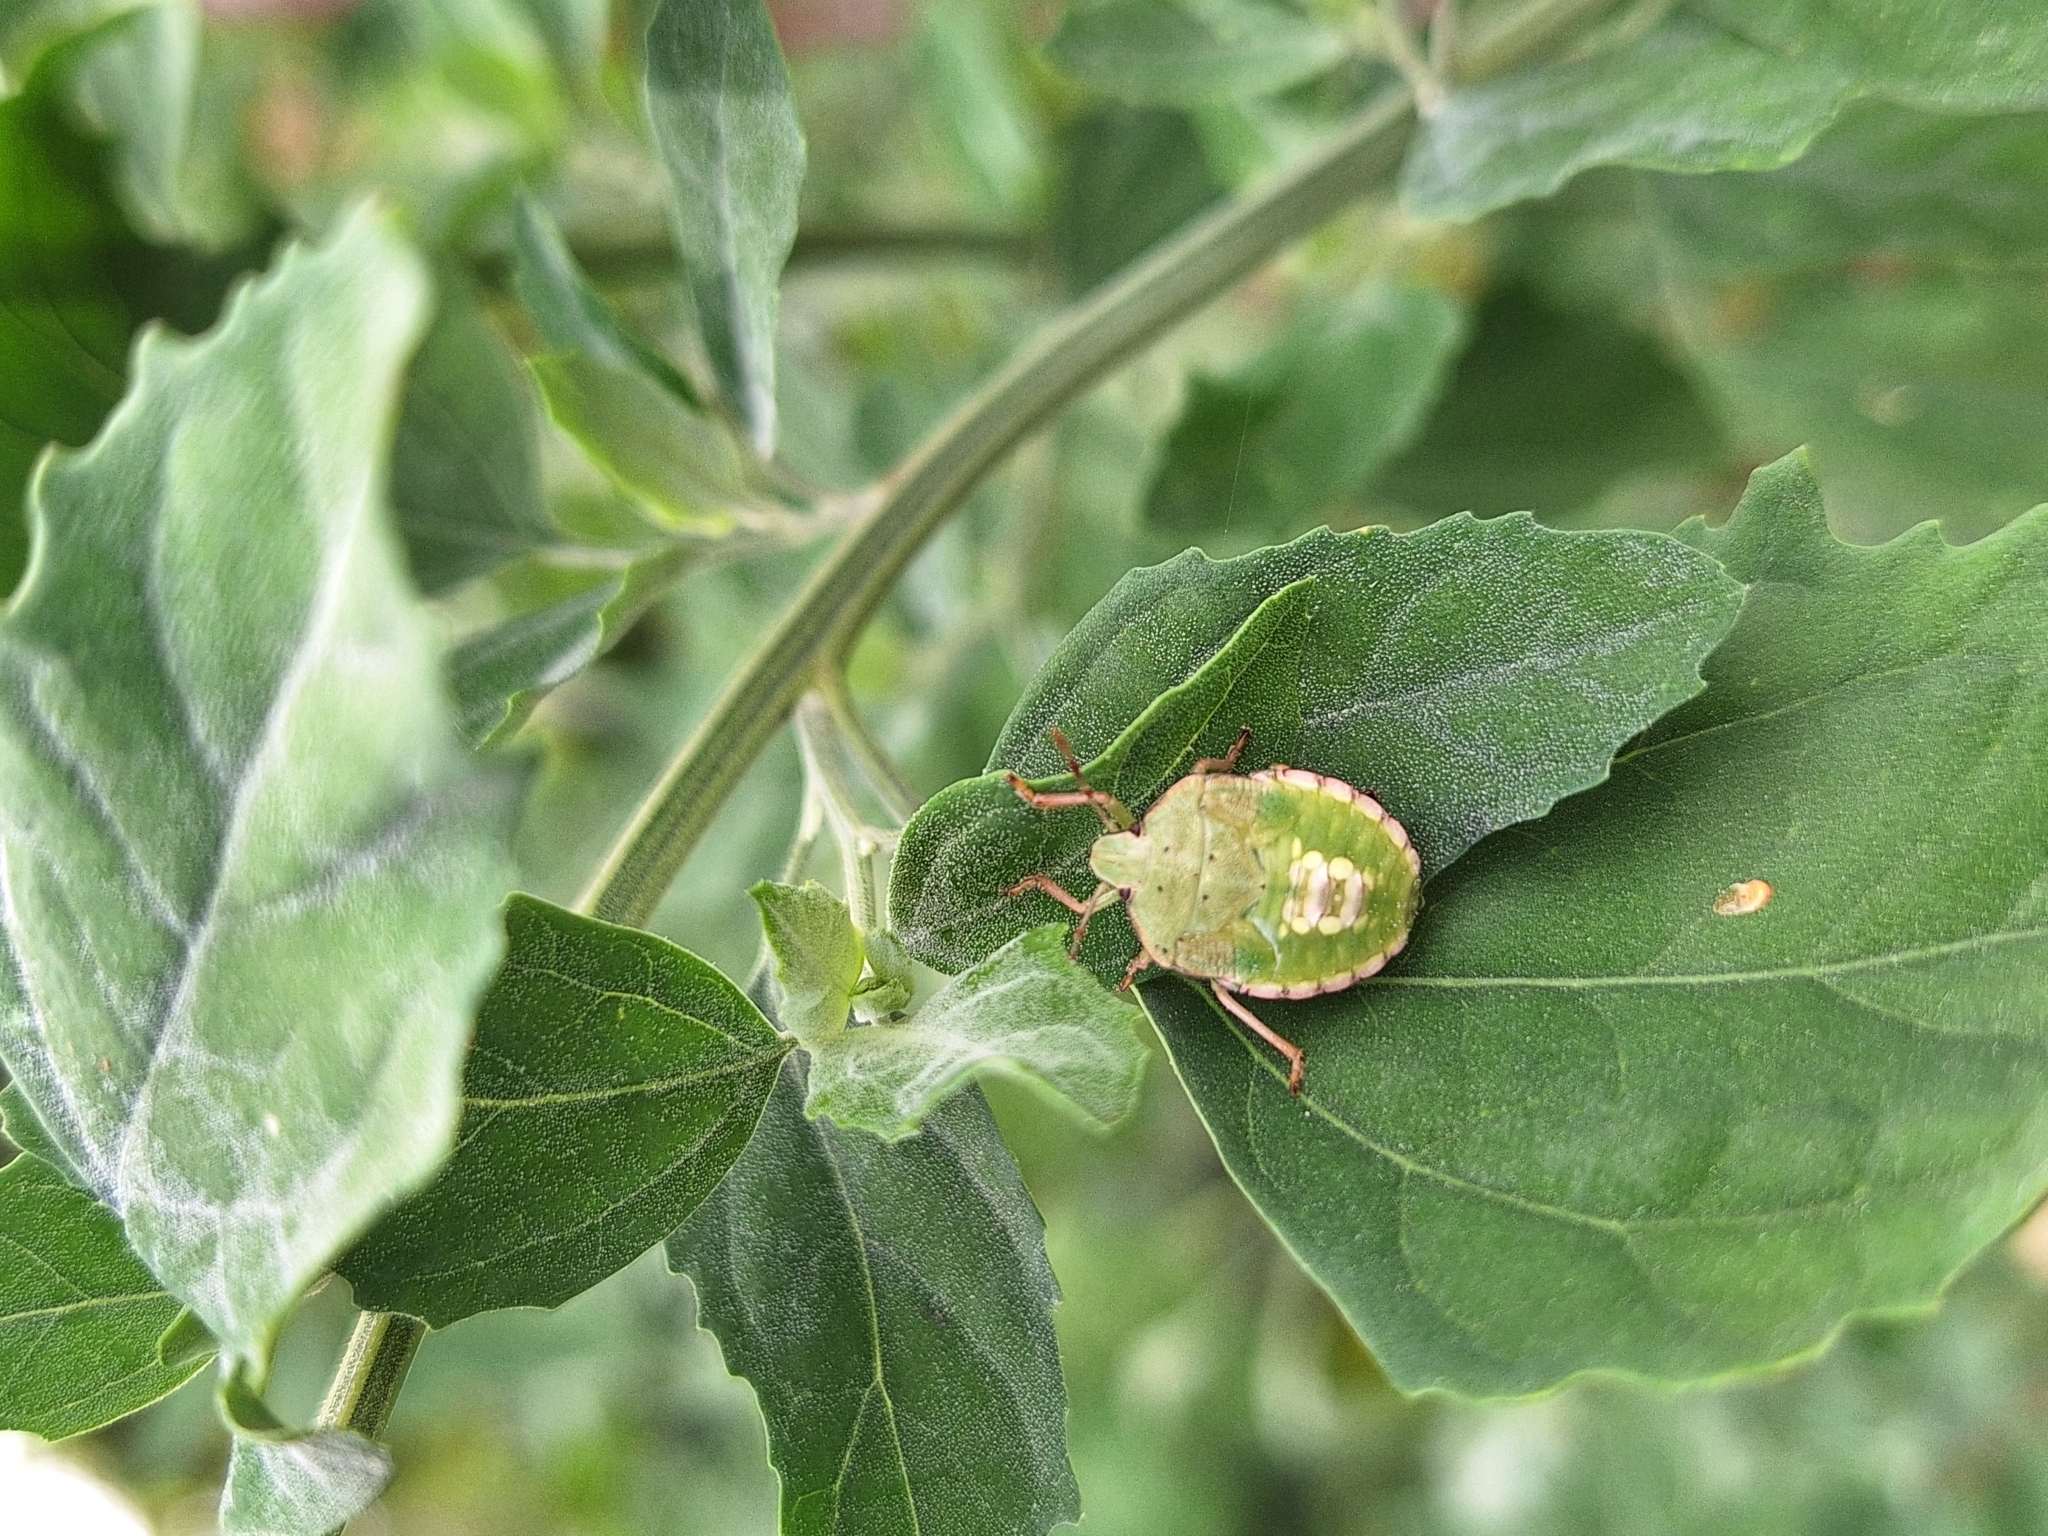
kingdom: Animalia
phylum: Arthropoda
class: Insecta
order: Hemiptera
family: Pentatomidae
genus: Nezara
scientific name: Nezara viridula
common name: Southern green stink bug
